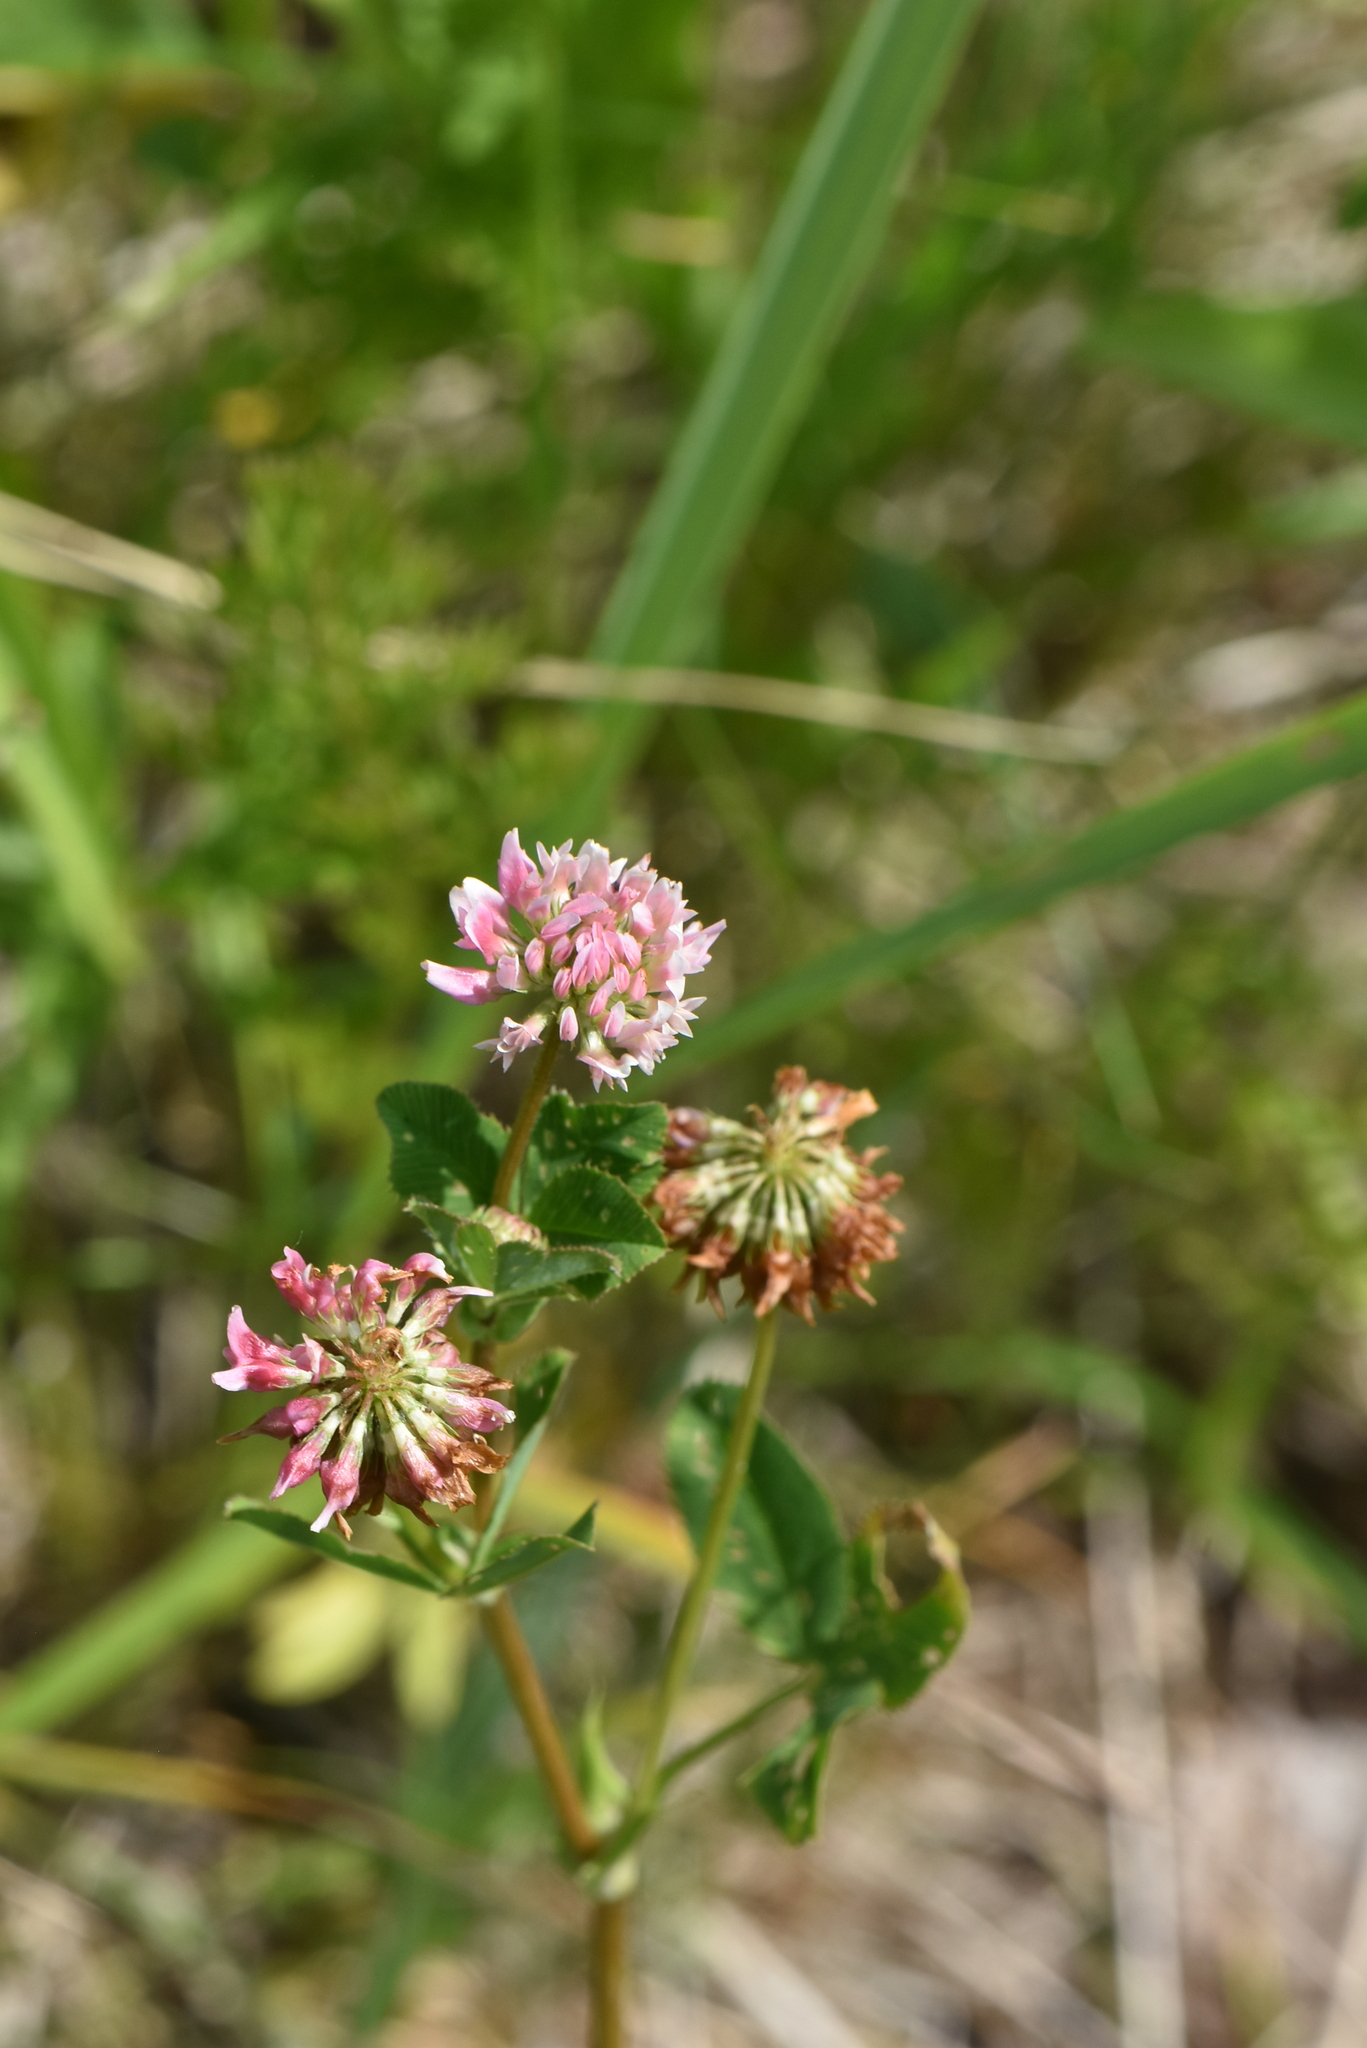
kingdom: Plantae
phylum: Tracheophyta
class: Magnoliopsida
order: Fabales
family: Fabaceae
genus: Trifolium
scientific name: Trifolium hybridum
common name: Alsike clover
